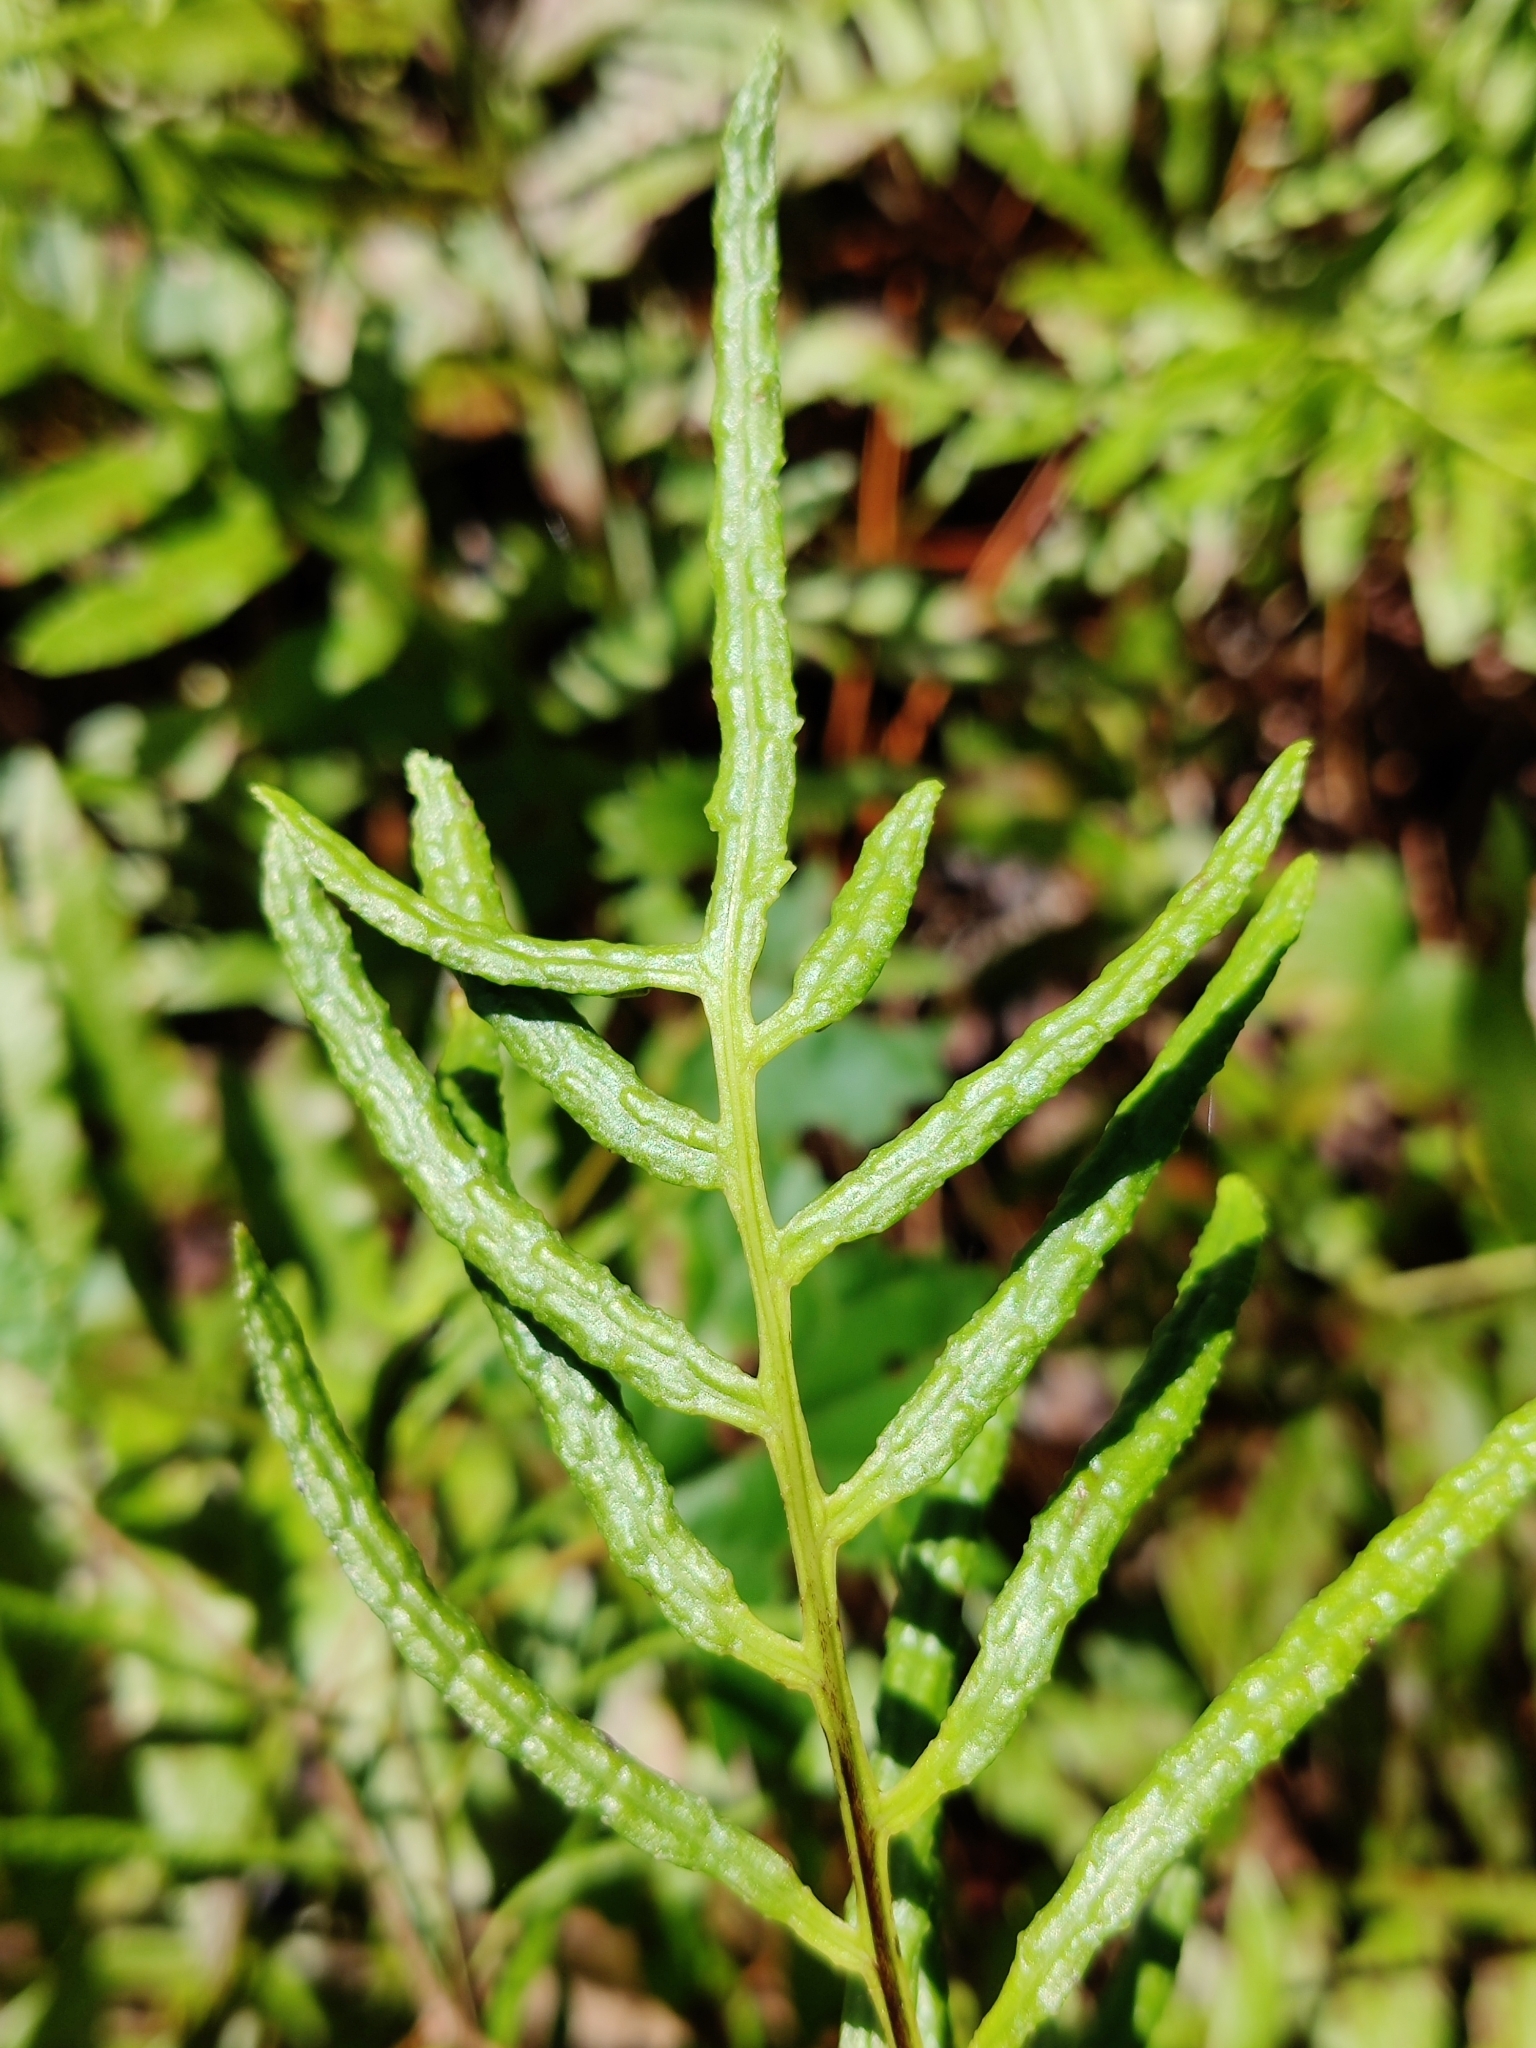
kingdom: Plantae
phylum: Tracheophyta
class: Polypodiopsida
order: Polypodiales
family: Blechnaceae
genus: Lorinseria
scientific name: Lorinseria areolata
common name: Dwarf chain fern
